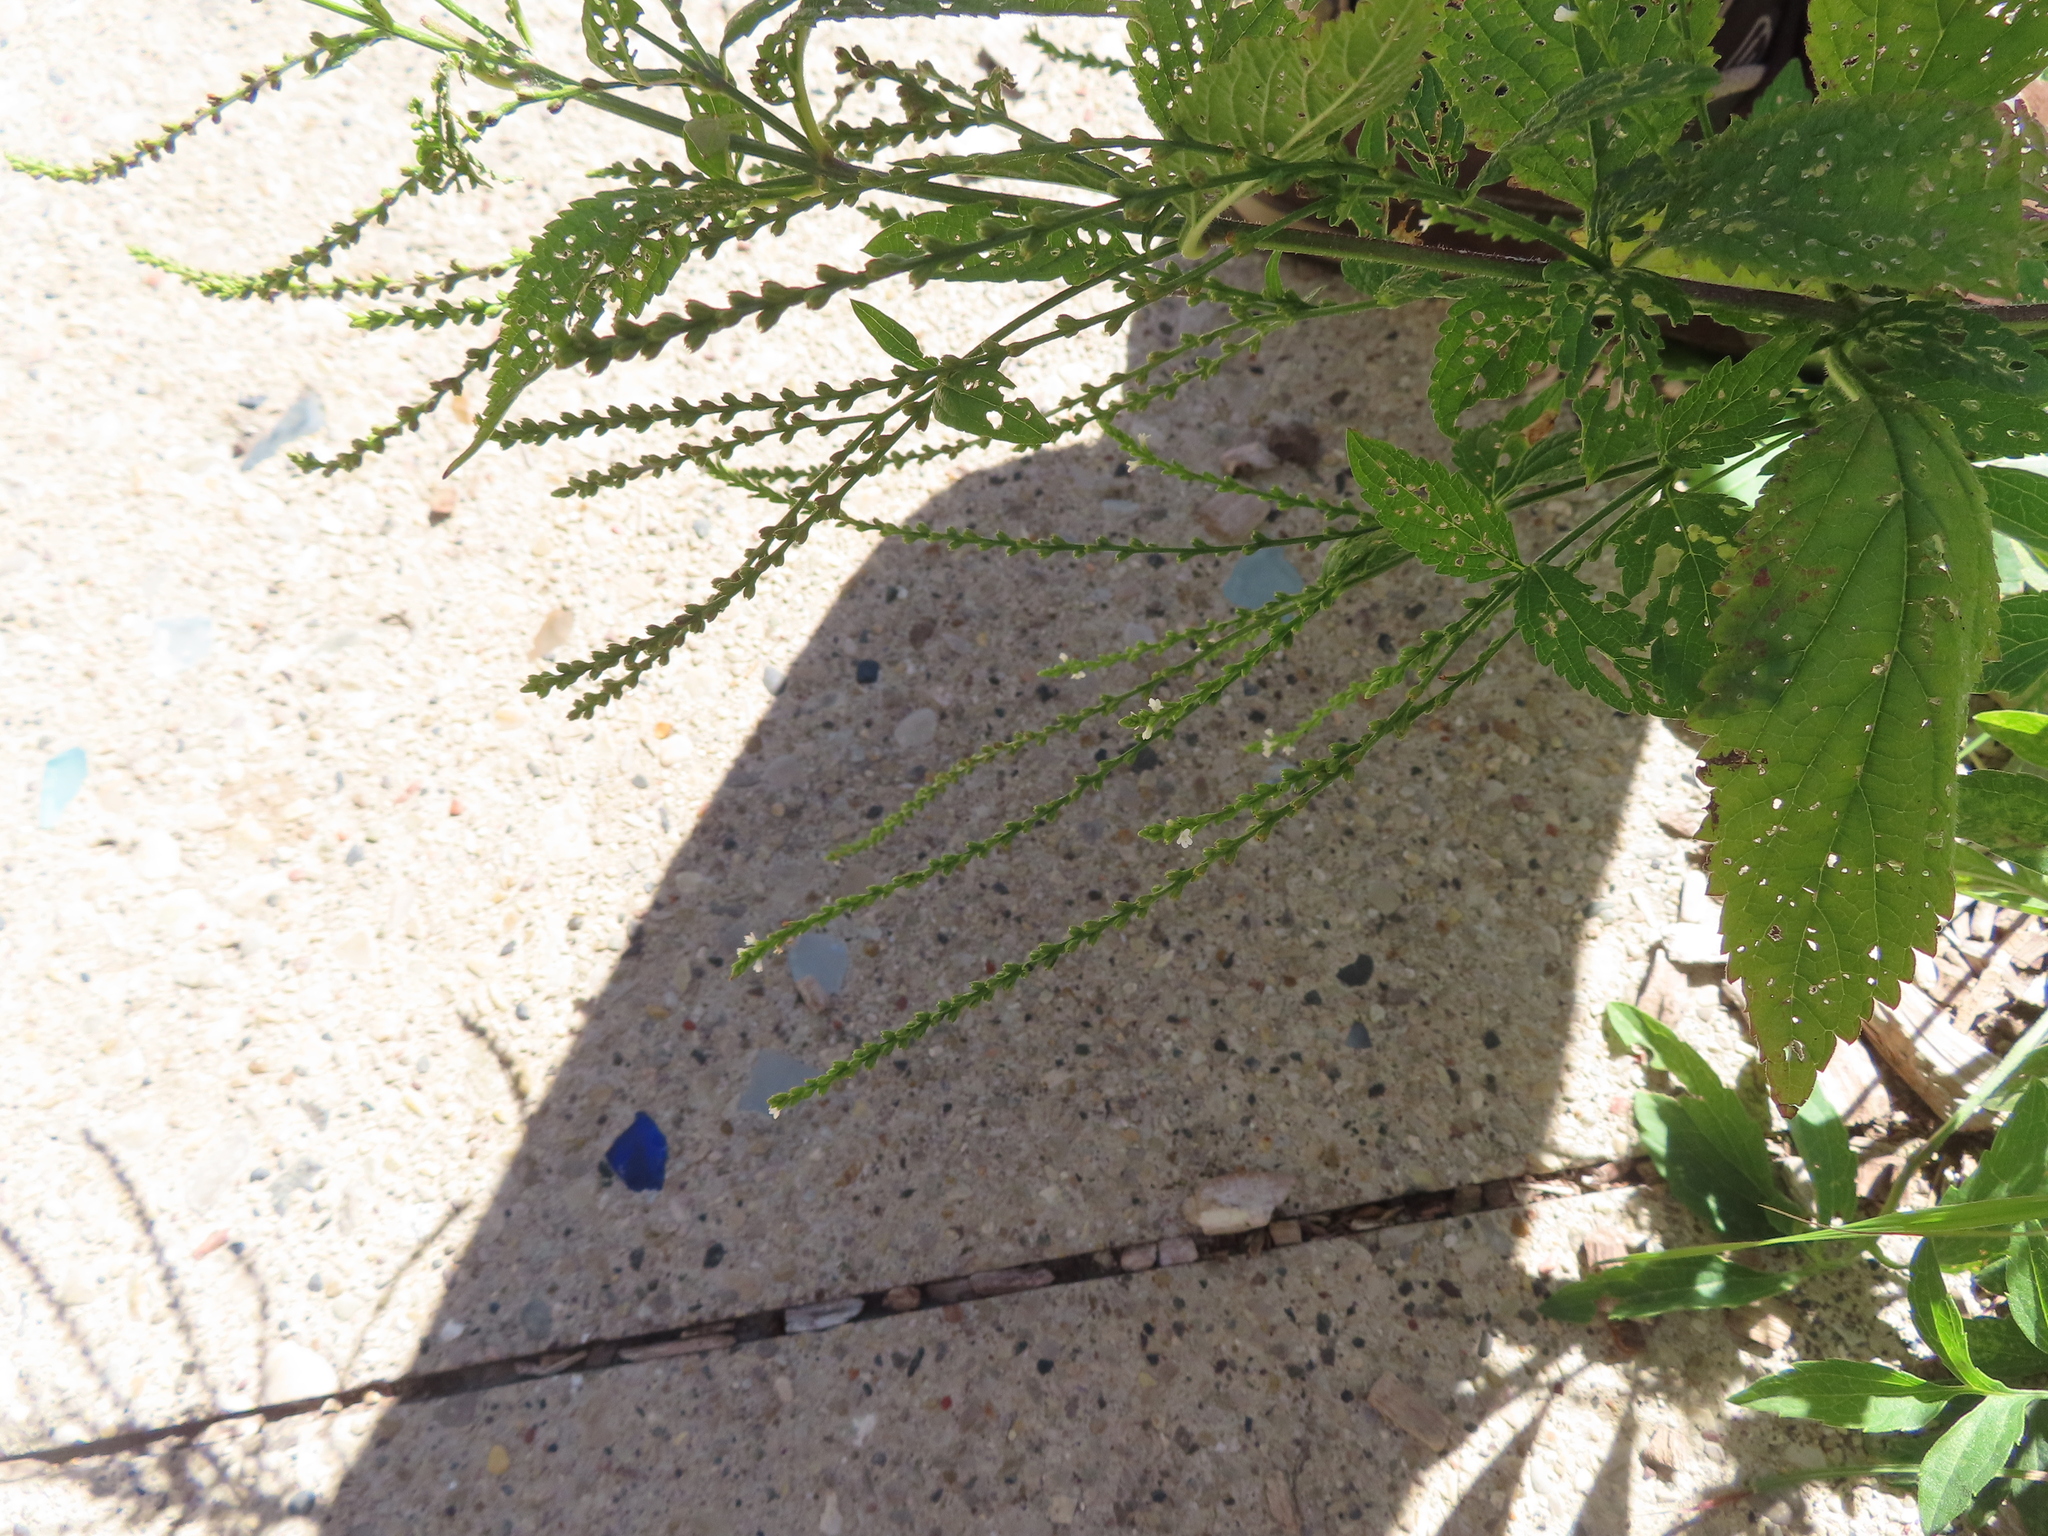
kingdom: Plantae
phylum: Tracheophyta
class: Magnoliopsida
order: Lamiales
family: Verbenaceae
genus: Verbena
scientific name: Verbena urticifolia
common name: Nettle-leaved vervain
